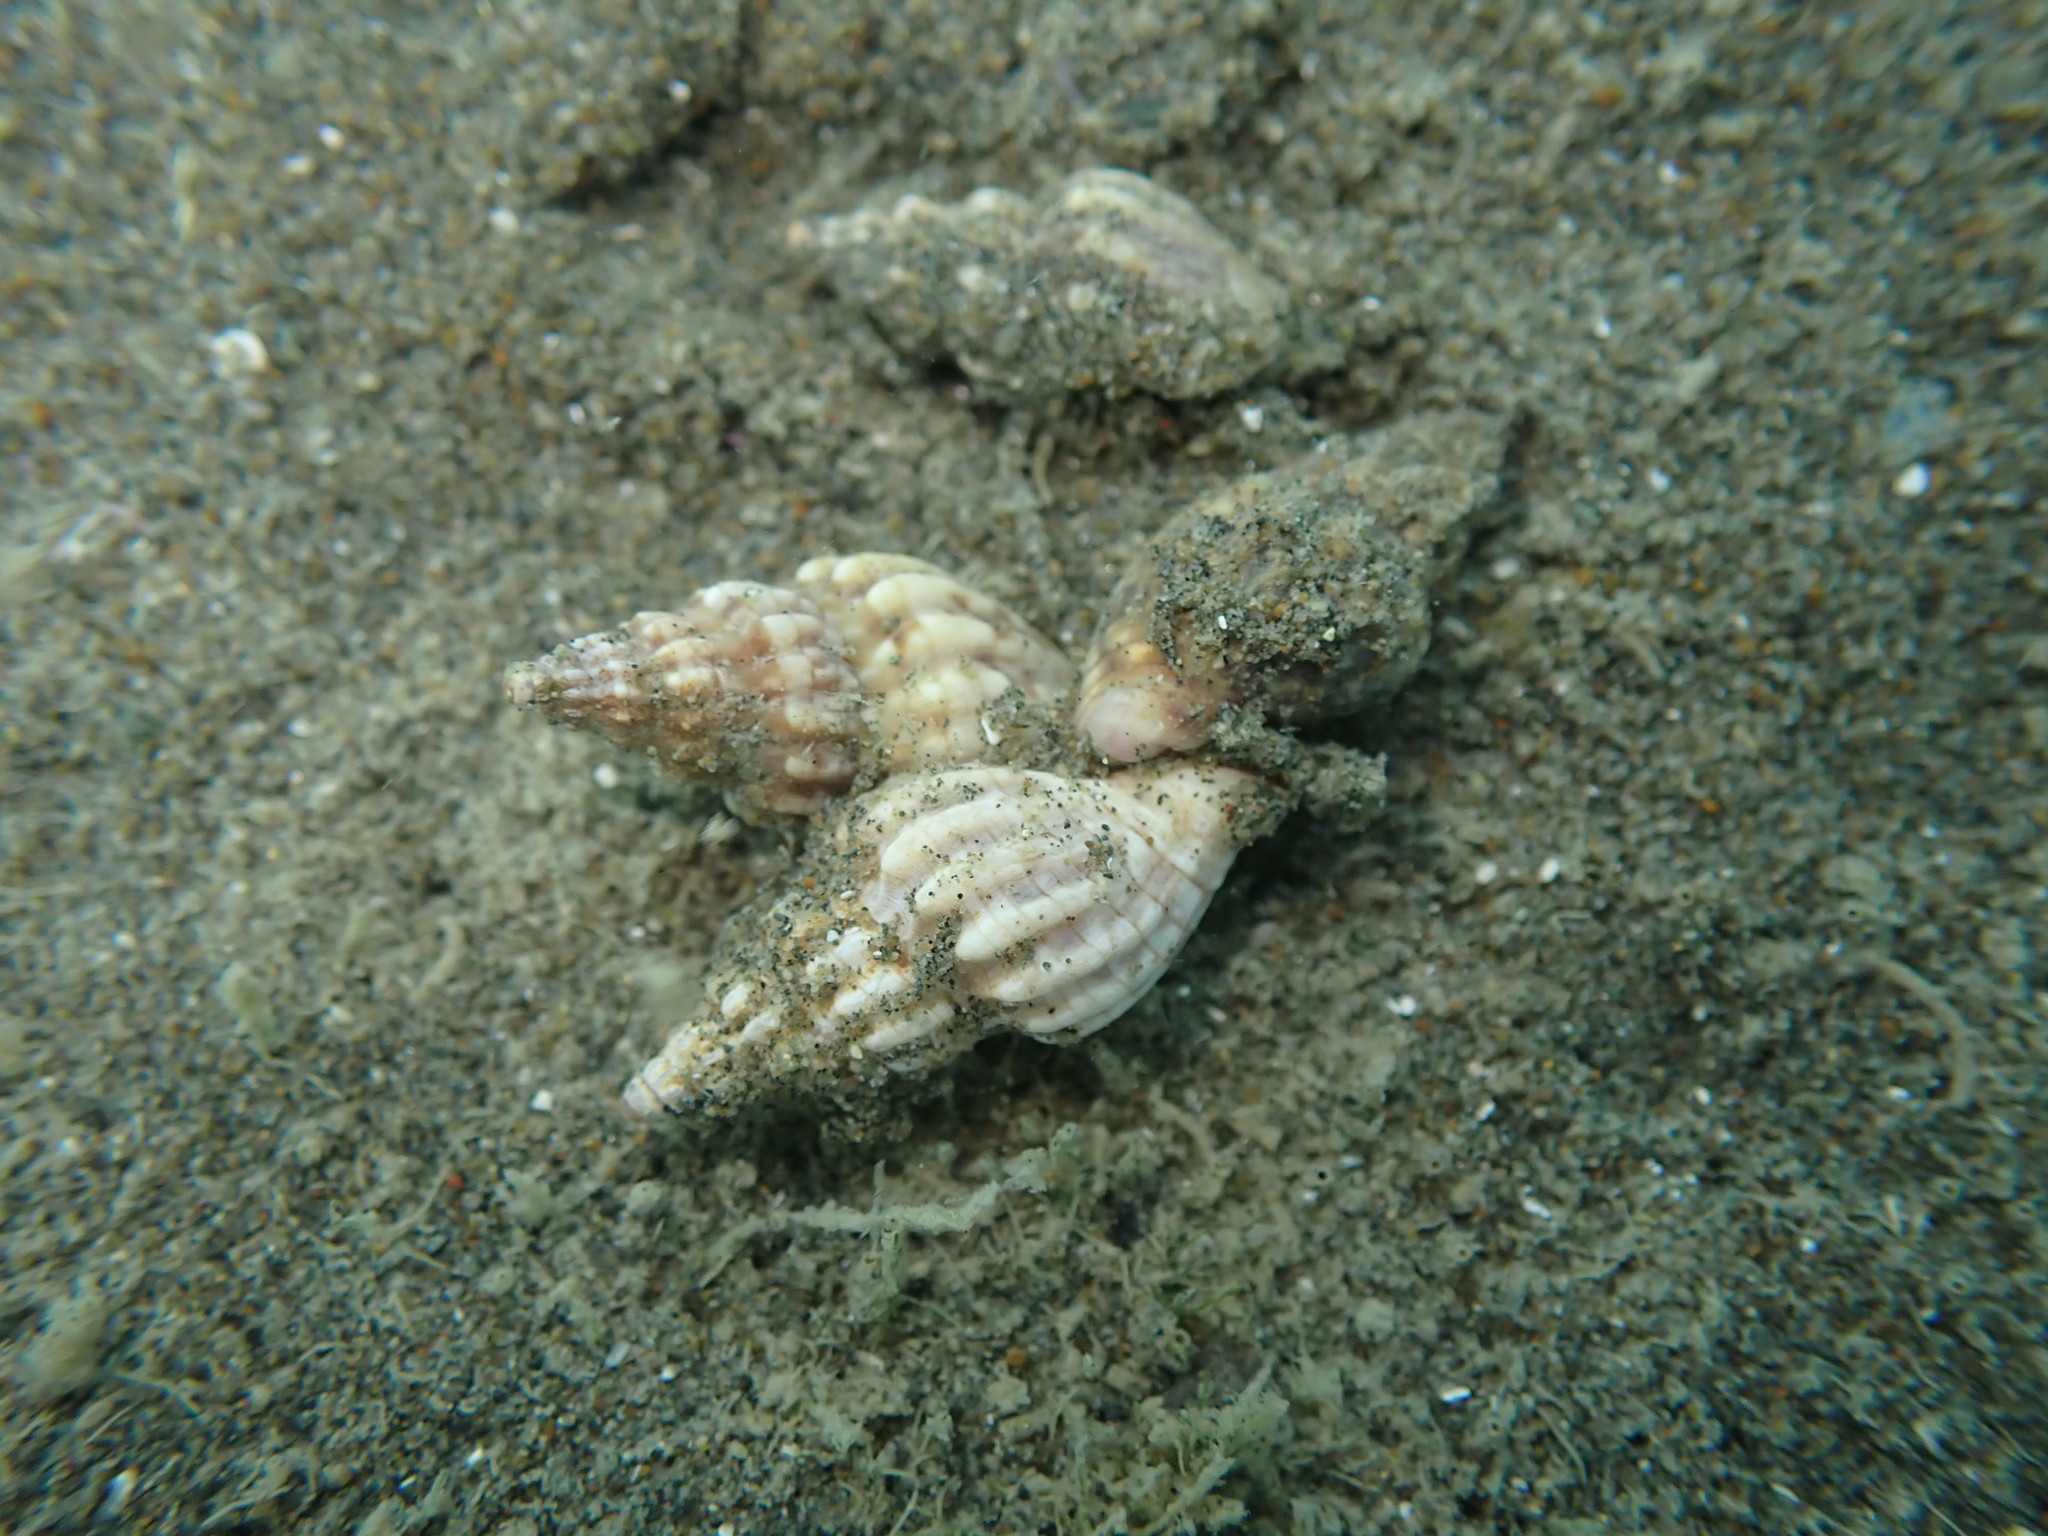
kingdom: Animalia
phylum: Mollusca
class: Gastropoda
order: Neogastropoda
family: Cominellidae
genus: Cominella
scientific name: Cominella quoyana
